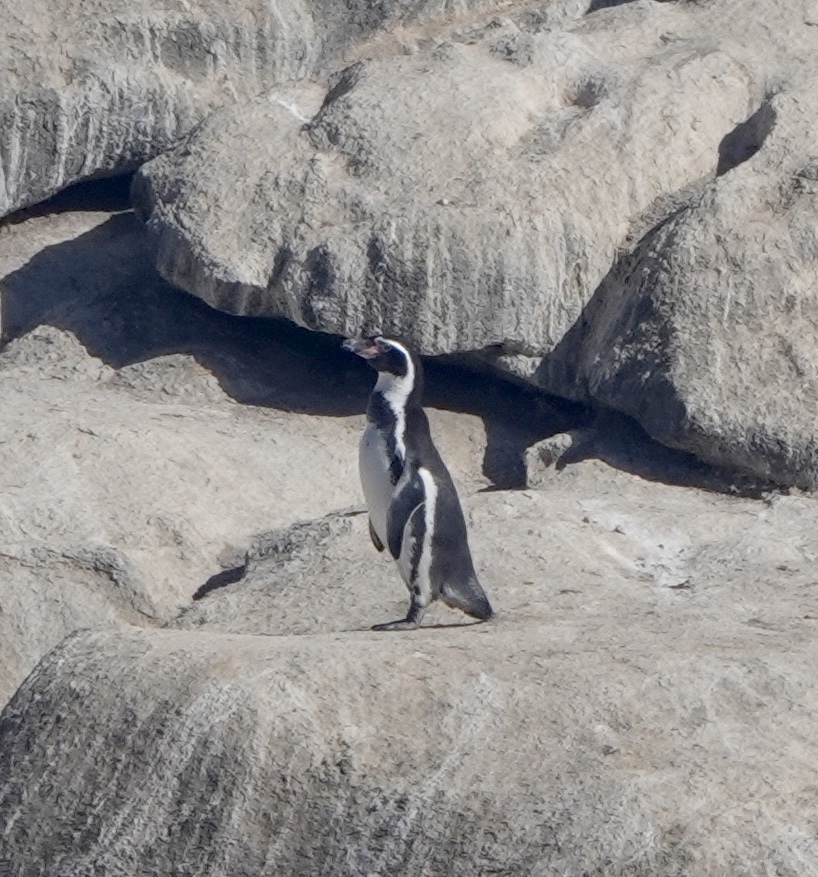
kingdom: Animalia
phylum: Chordata
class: Aves
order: Sphenisciformes
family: Spheniscidae
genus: Spheniscus
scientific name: Spheniscus humboldti
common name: Humboldt penguin
